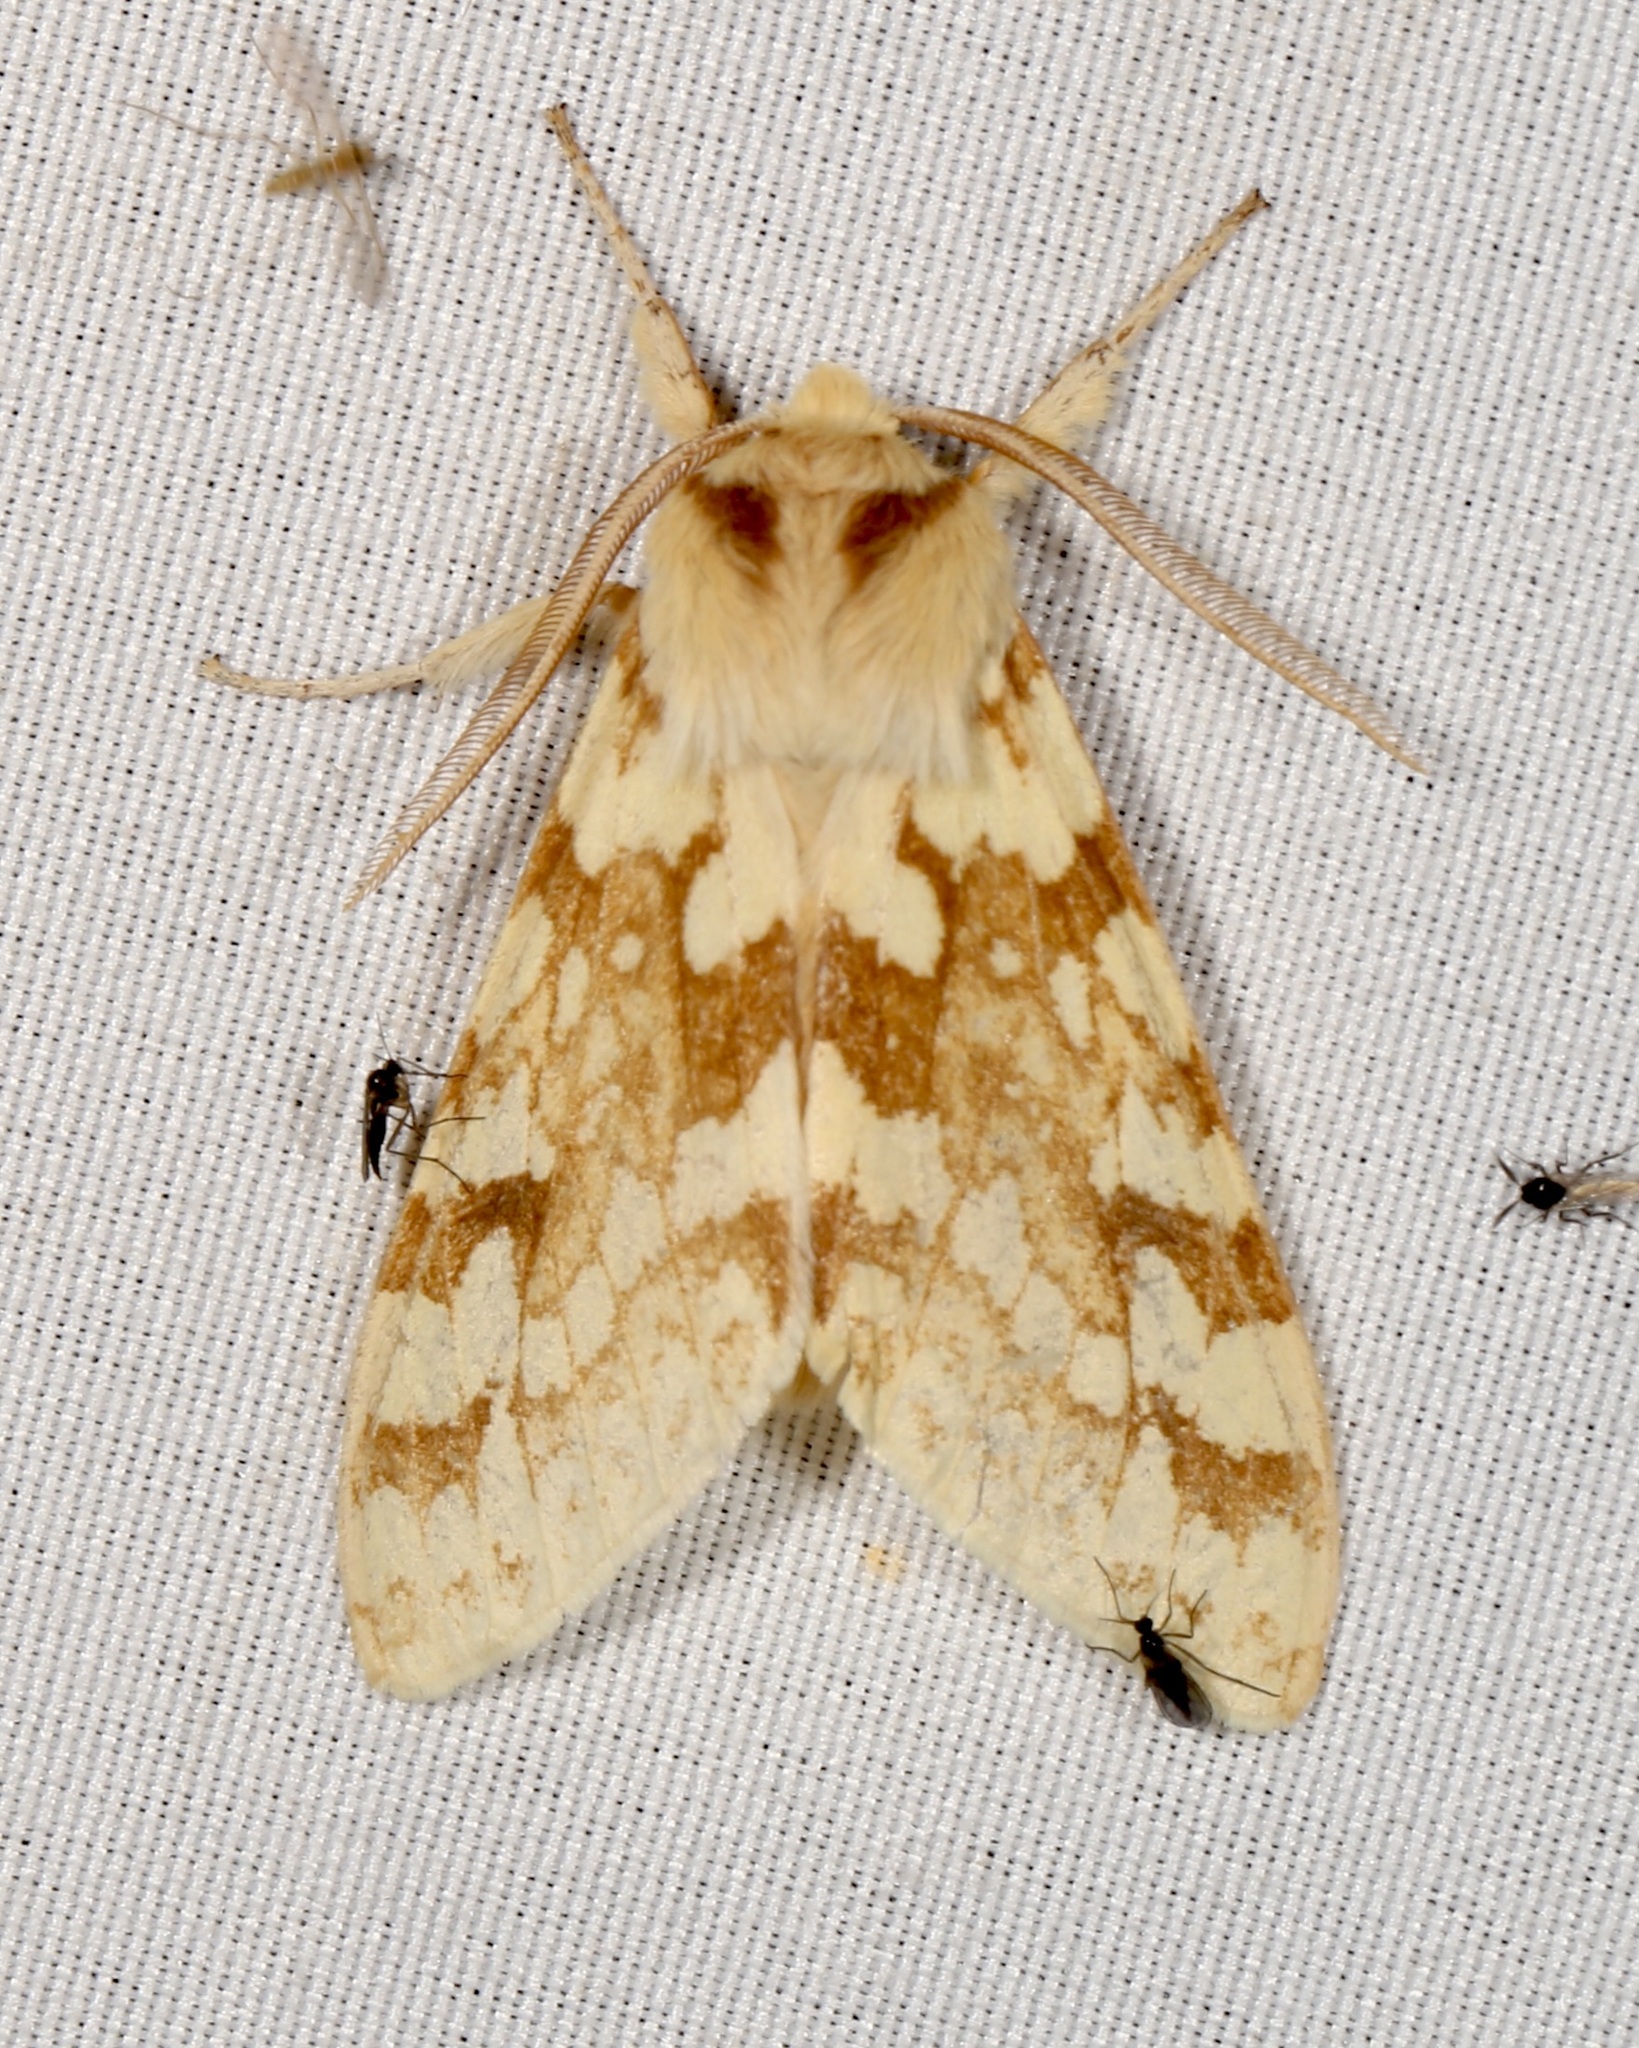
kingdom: Animalia
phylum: Arthropoda
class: Insecta
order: Lepidoptera
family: Erebidae
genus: Lophocampa
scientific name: Lophocampa maculata
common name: Spotted tussock moth
